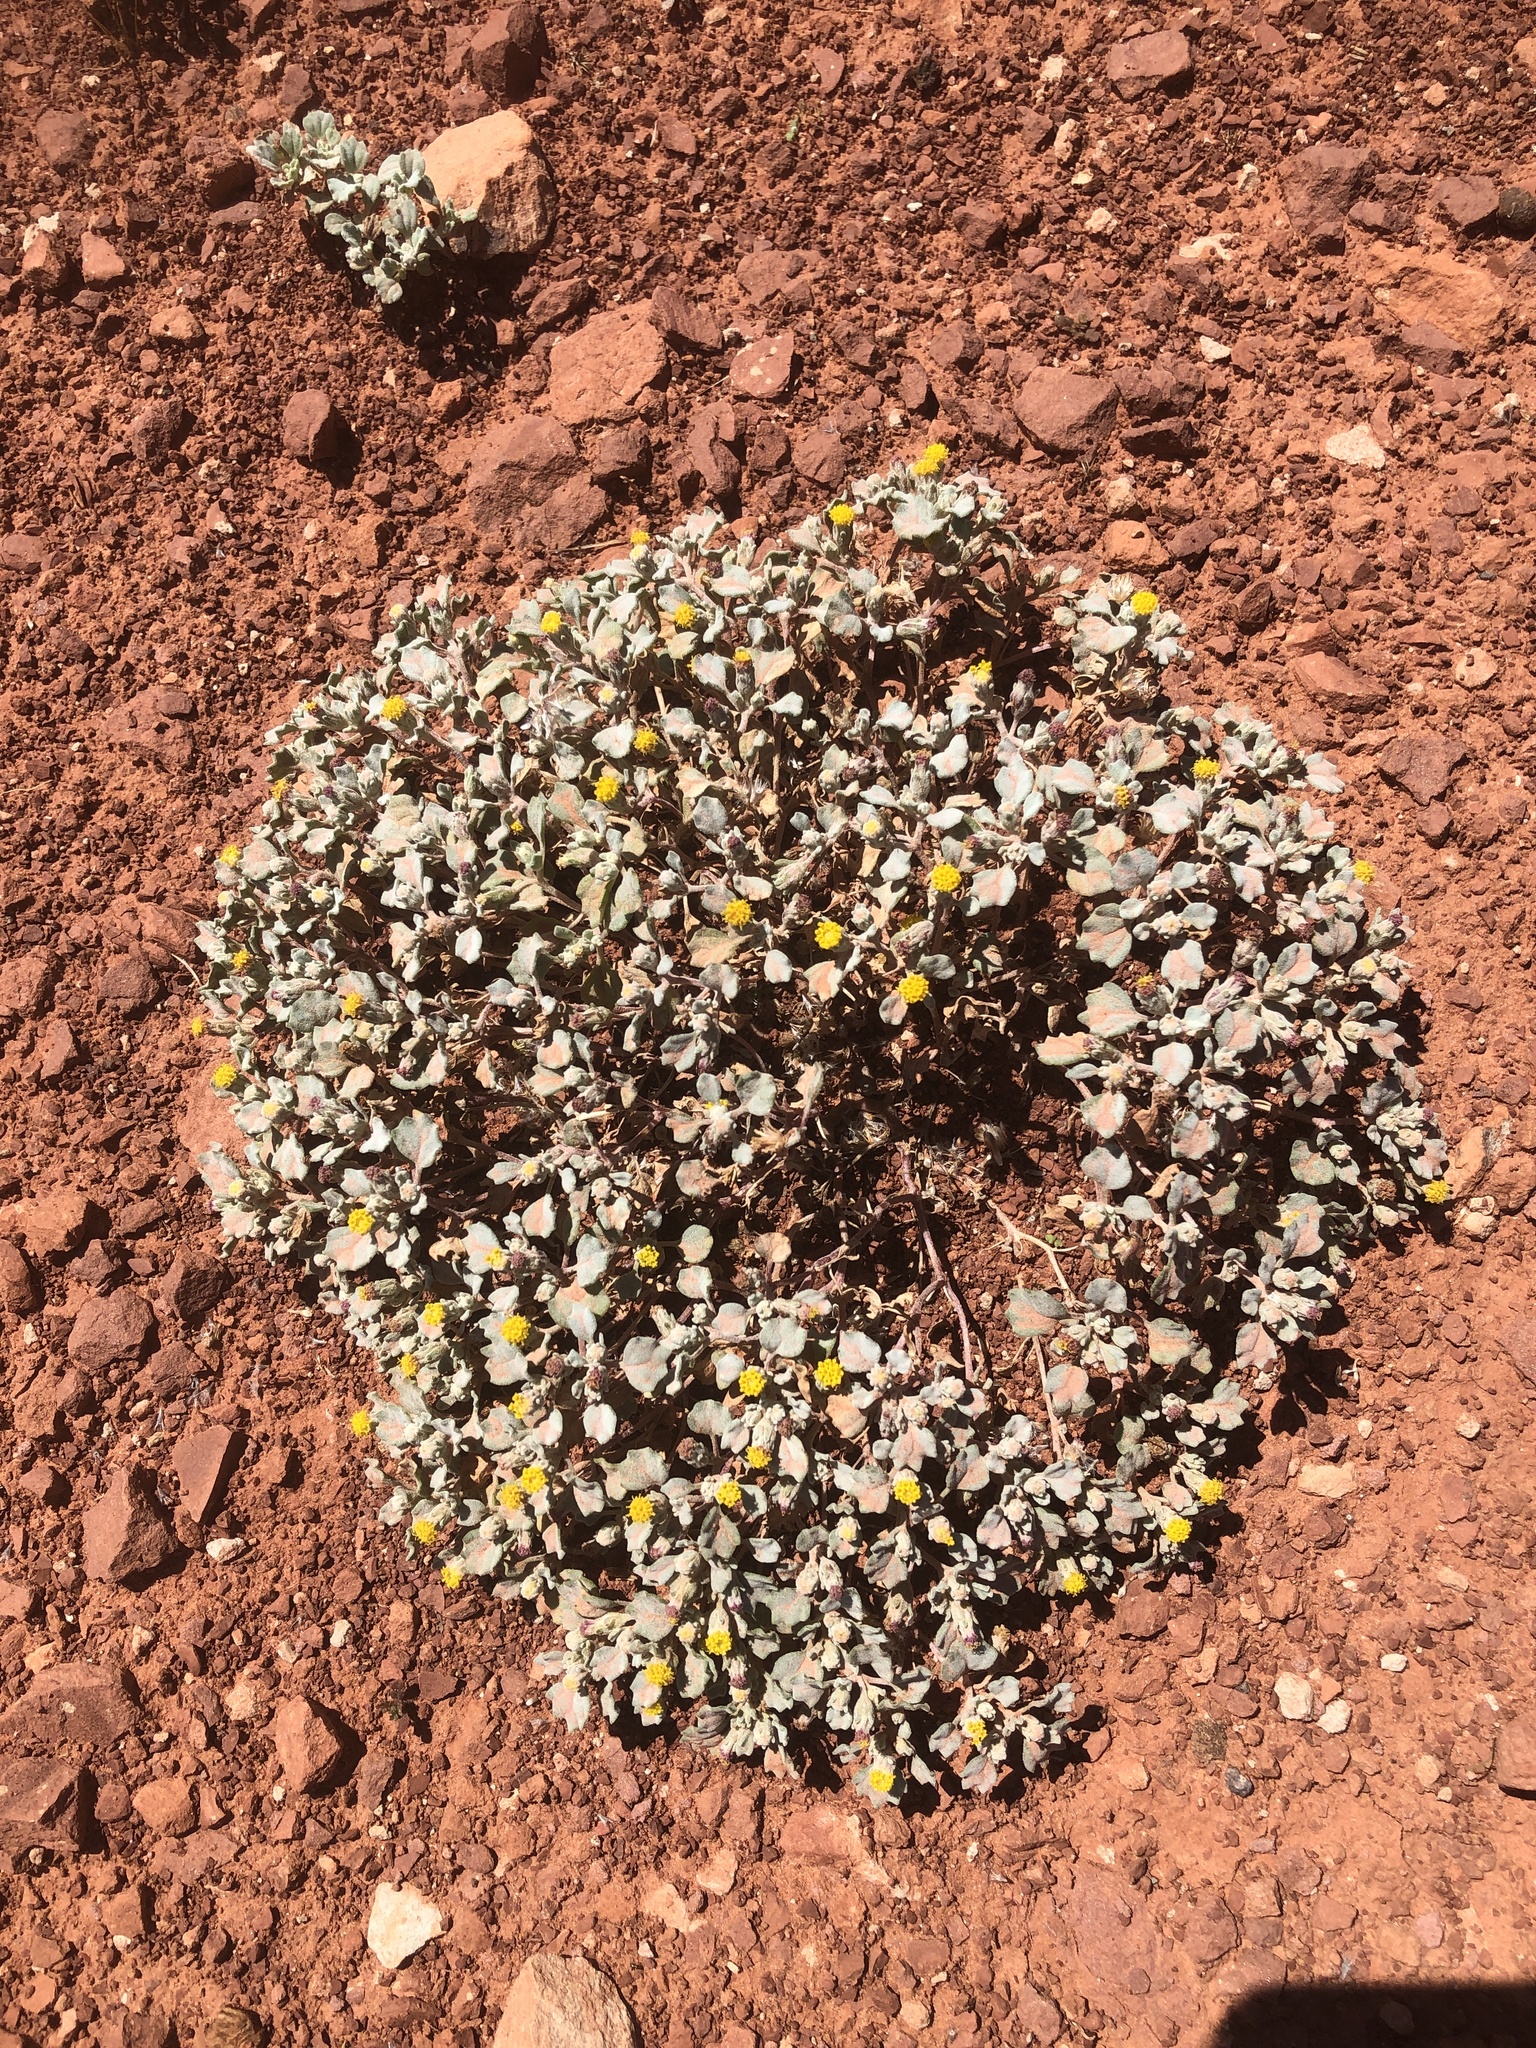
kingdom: Plantae
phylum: Tracheophyta
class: Magnoliopsida
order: Asterales
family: Asteraceae
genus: Psathyrotes
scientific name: Psathyrotes annua
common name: Mealy rosettes
